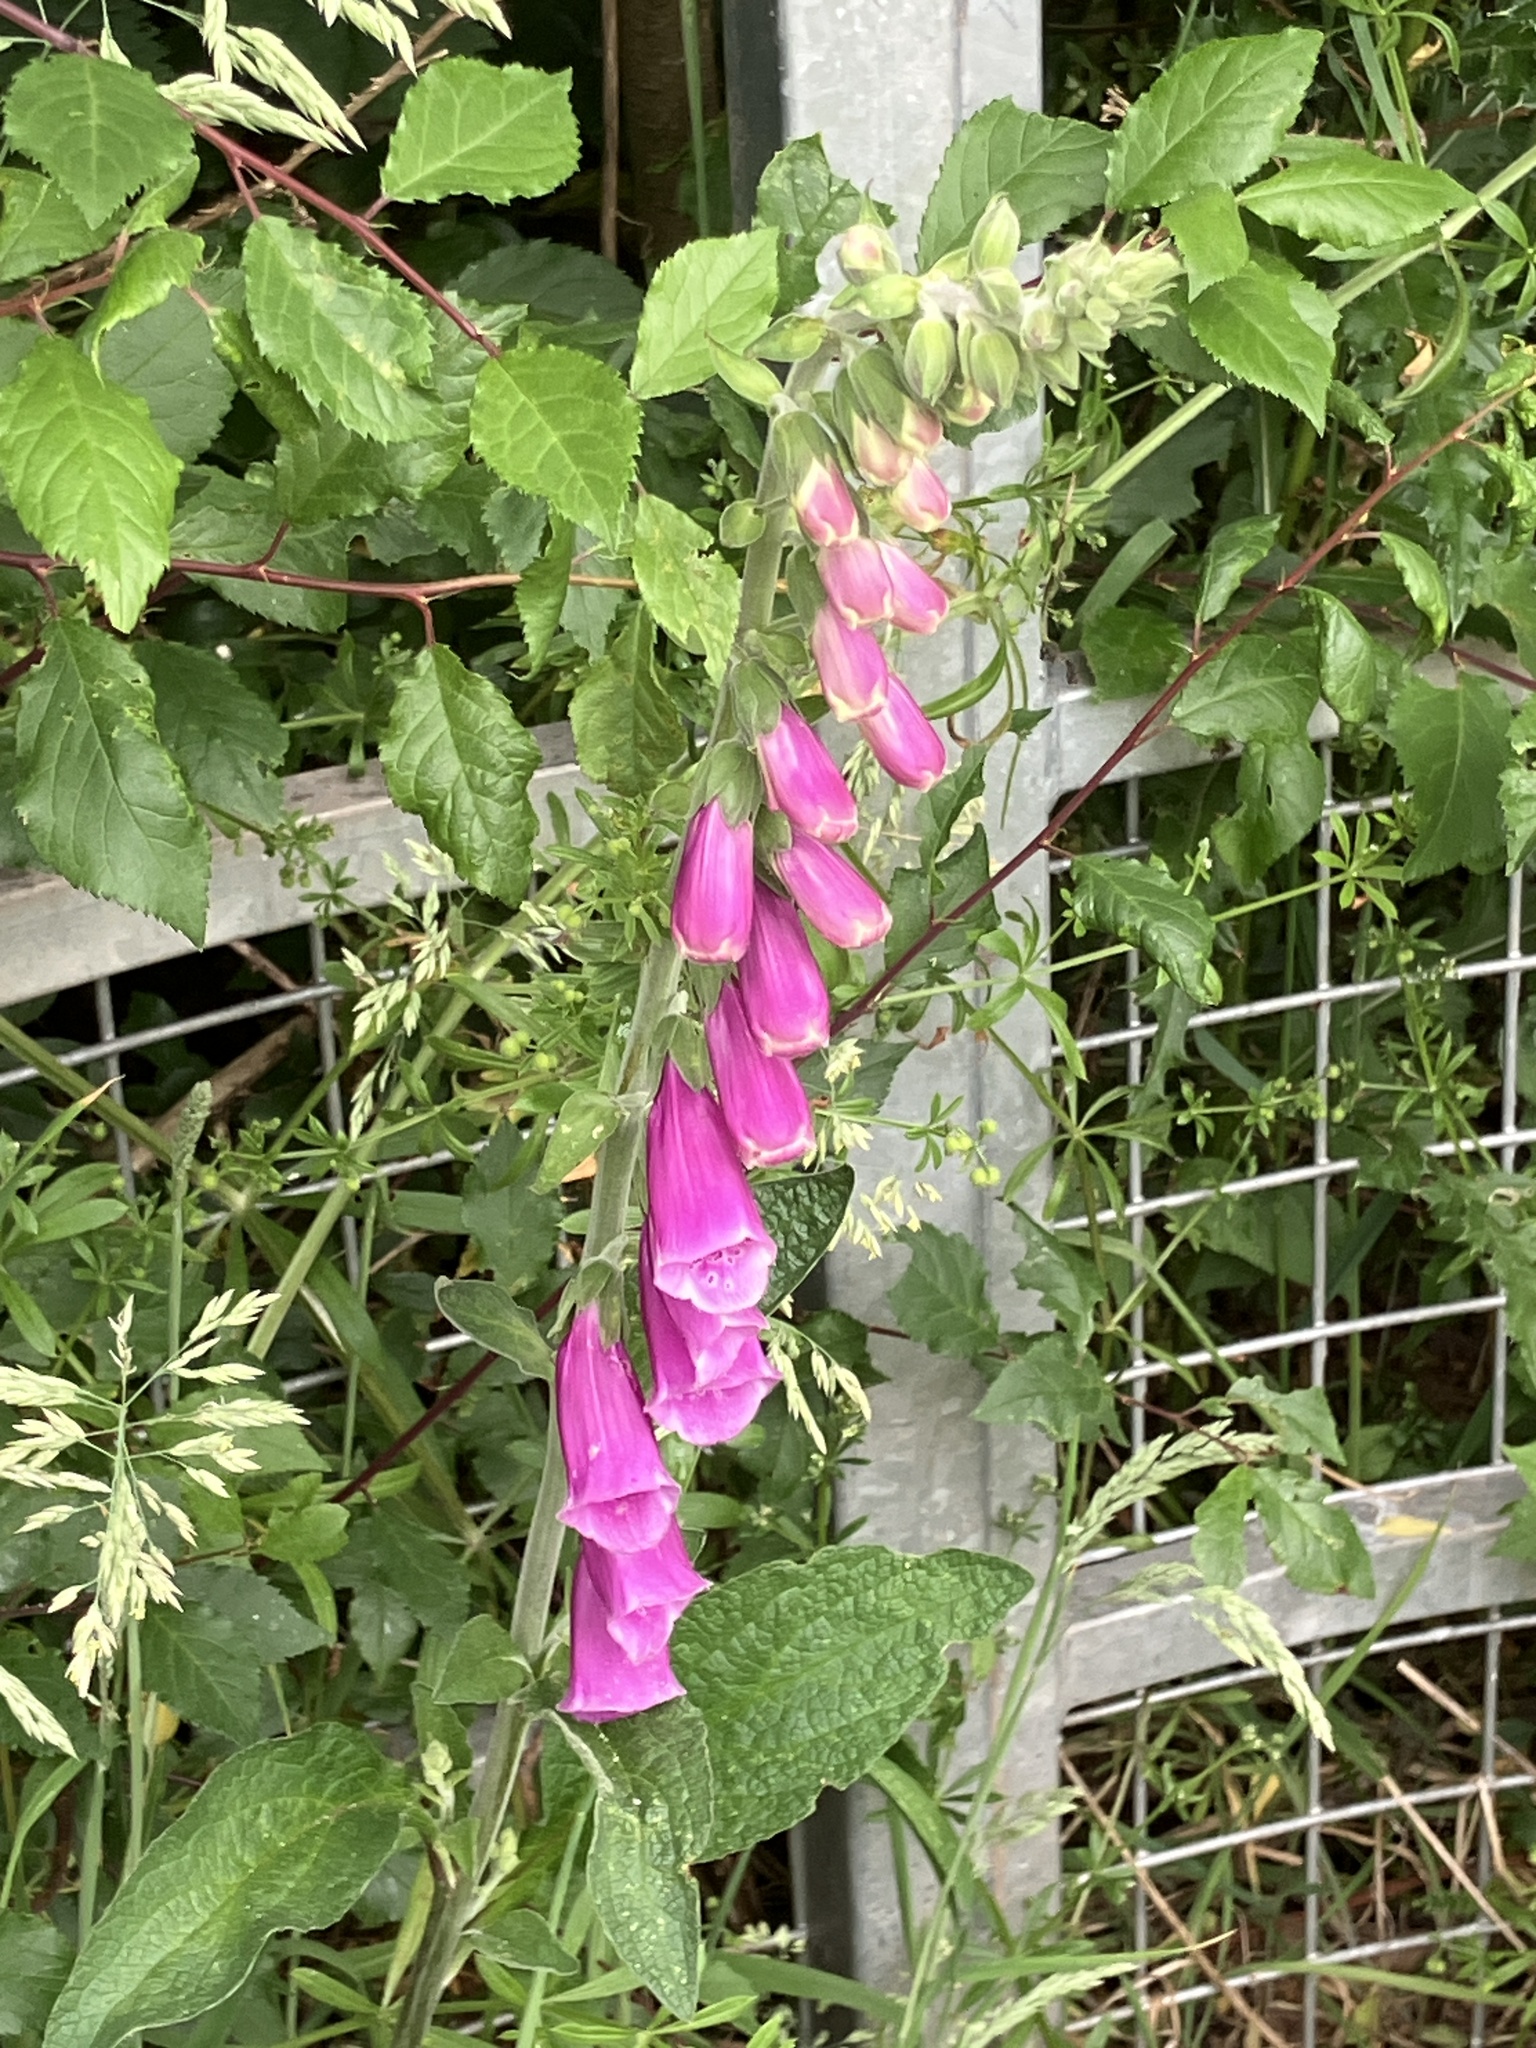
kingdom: Plantae
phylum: Tracheophyta
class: Magnoliopsida
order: Lamiales
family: Plantaginaceae
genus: Digitalis
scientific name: Digitalis purpurea
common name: Foxglove
